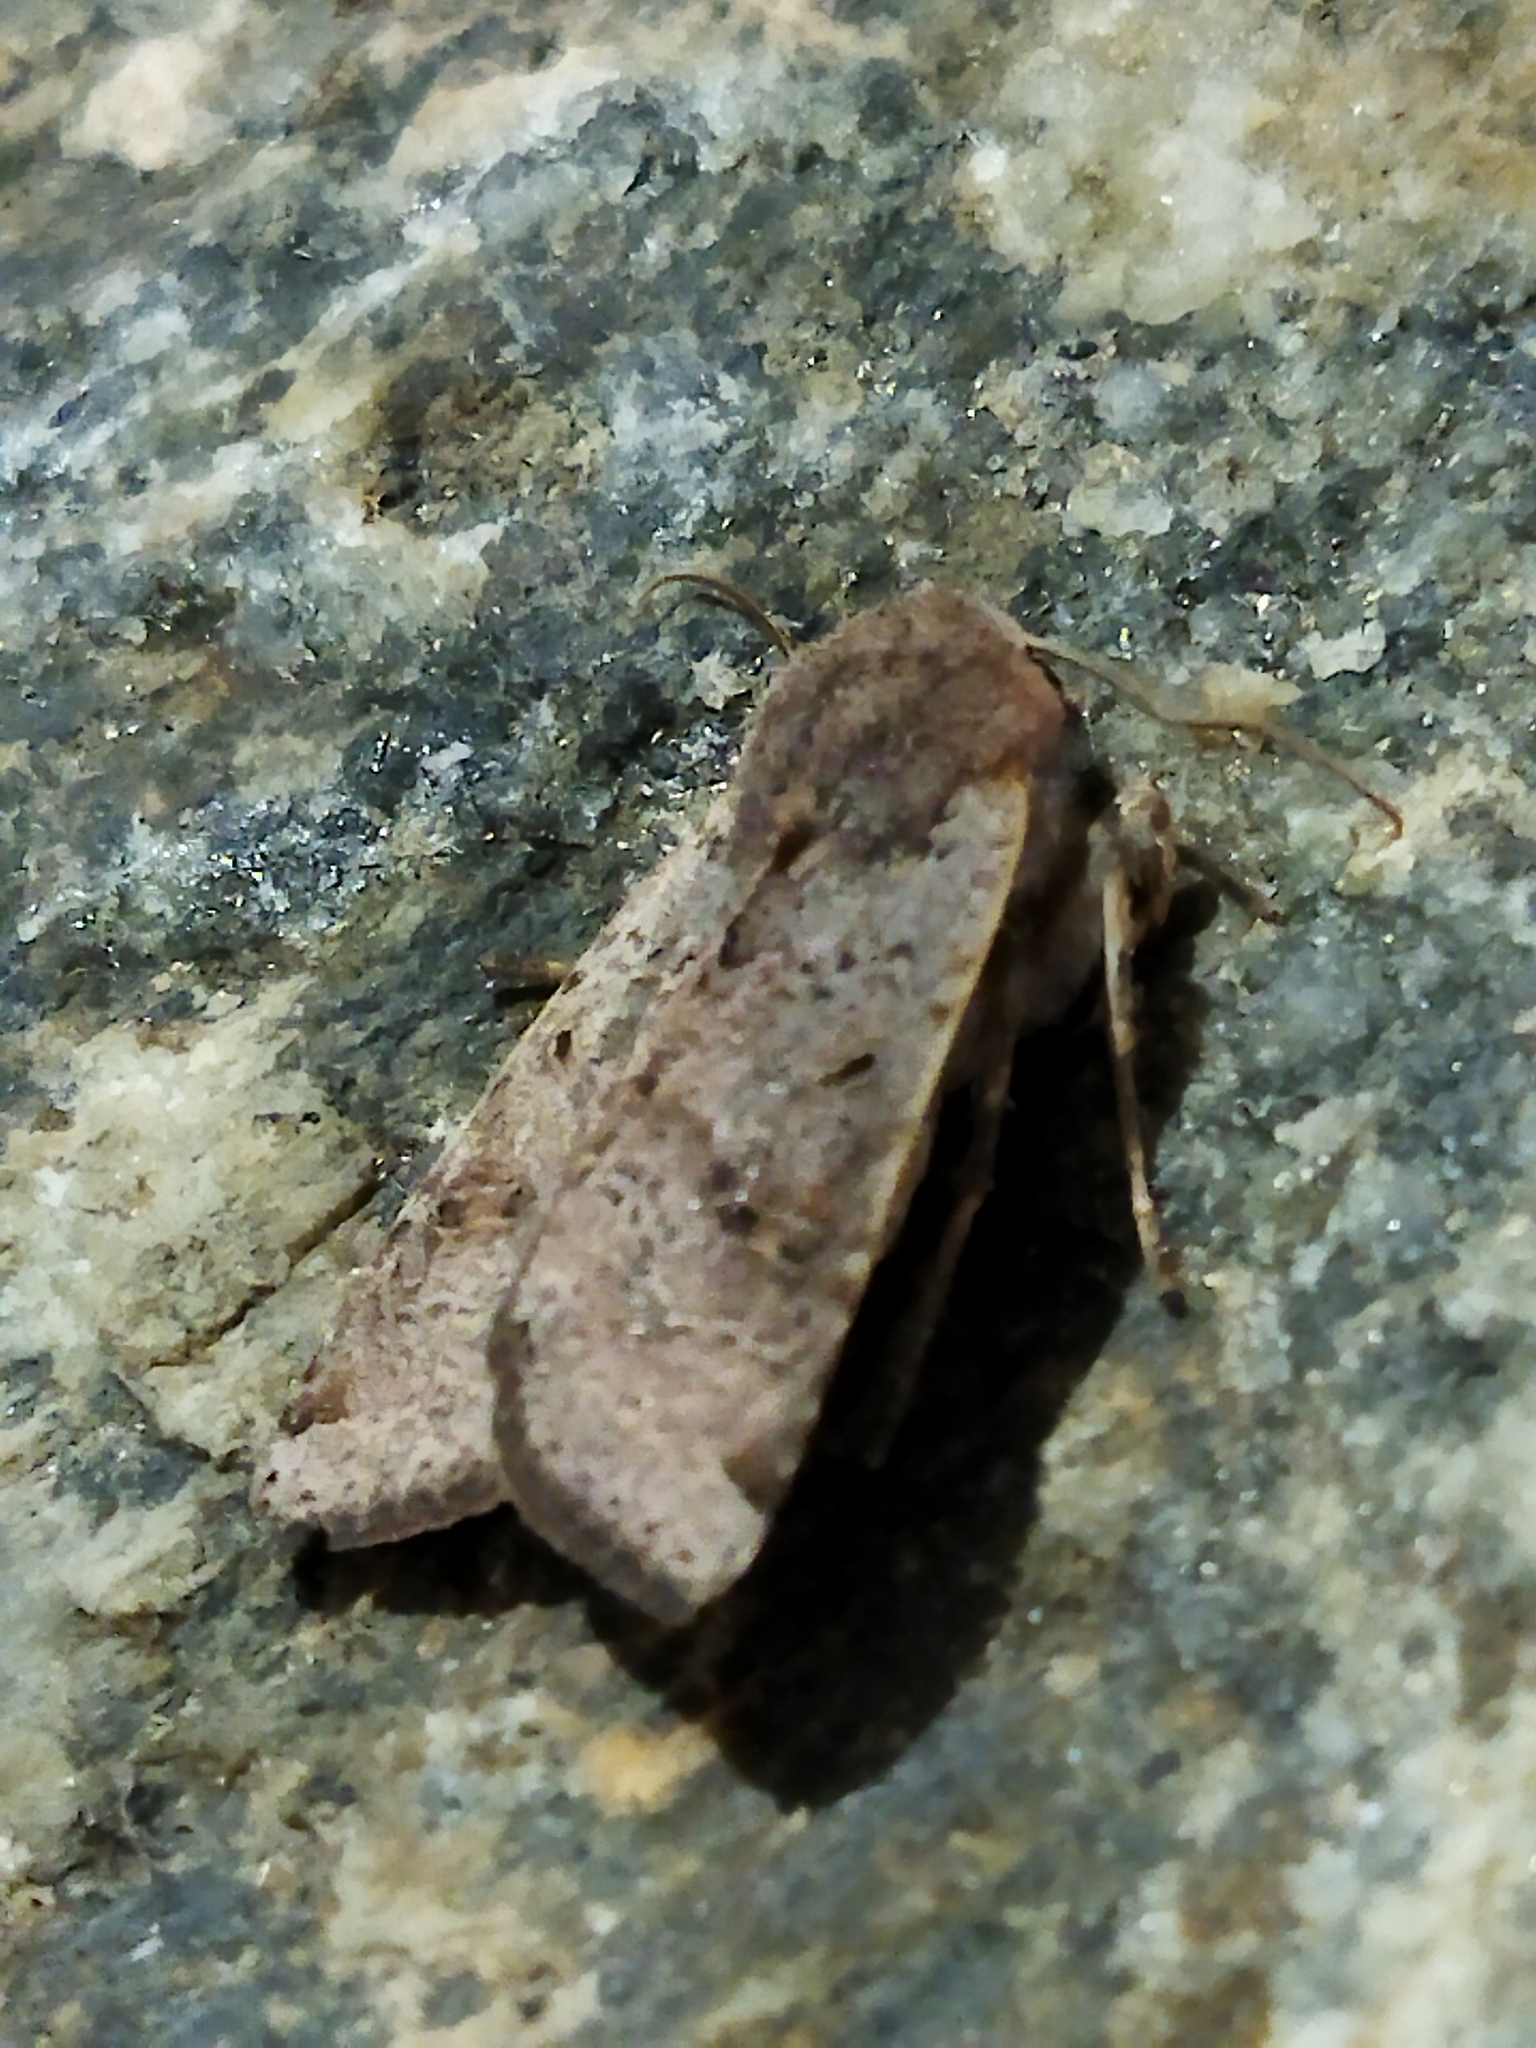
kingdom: Animalia
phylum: Arthropoda
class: Insecta
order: Lepidoptera
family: Noctuidae
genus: Agrochola
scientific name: Agrochola lychnidis
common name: Beaded chestnut
